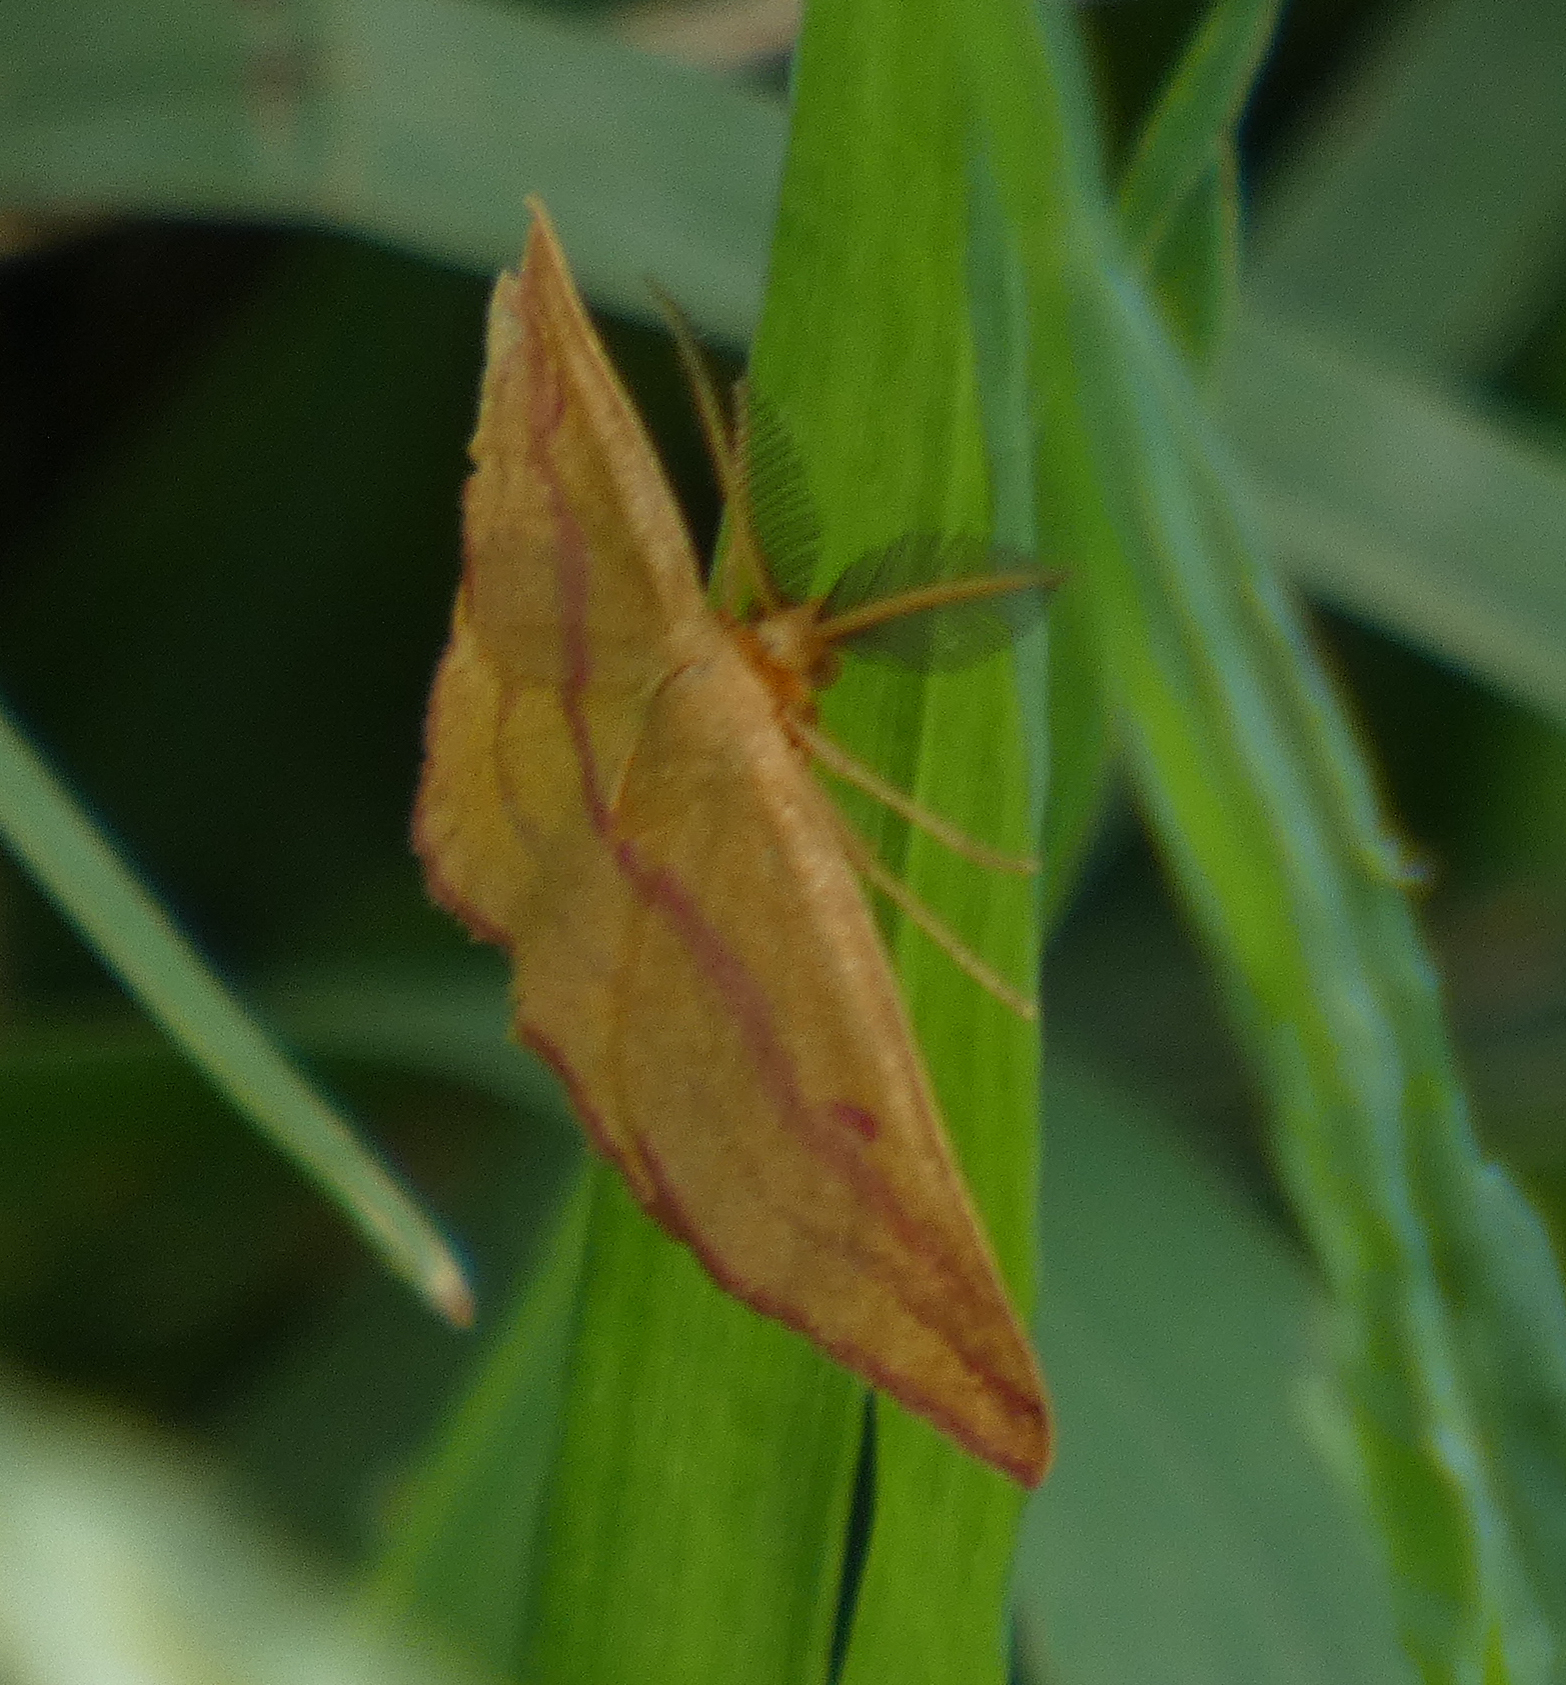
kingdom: Animalia
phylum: Arthropoda
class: Insecta
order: Lepidoptera
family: Geometridae
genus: Haematopis
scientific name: Haematopis grataria
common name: Chickweed geometer
